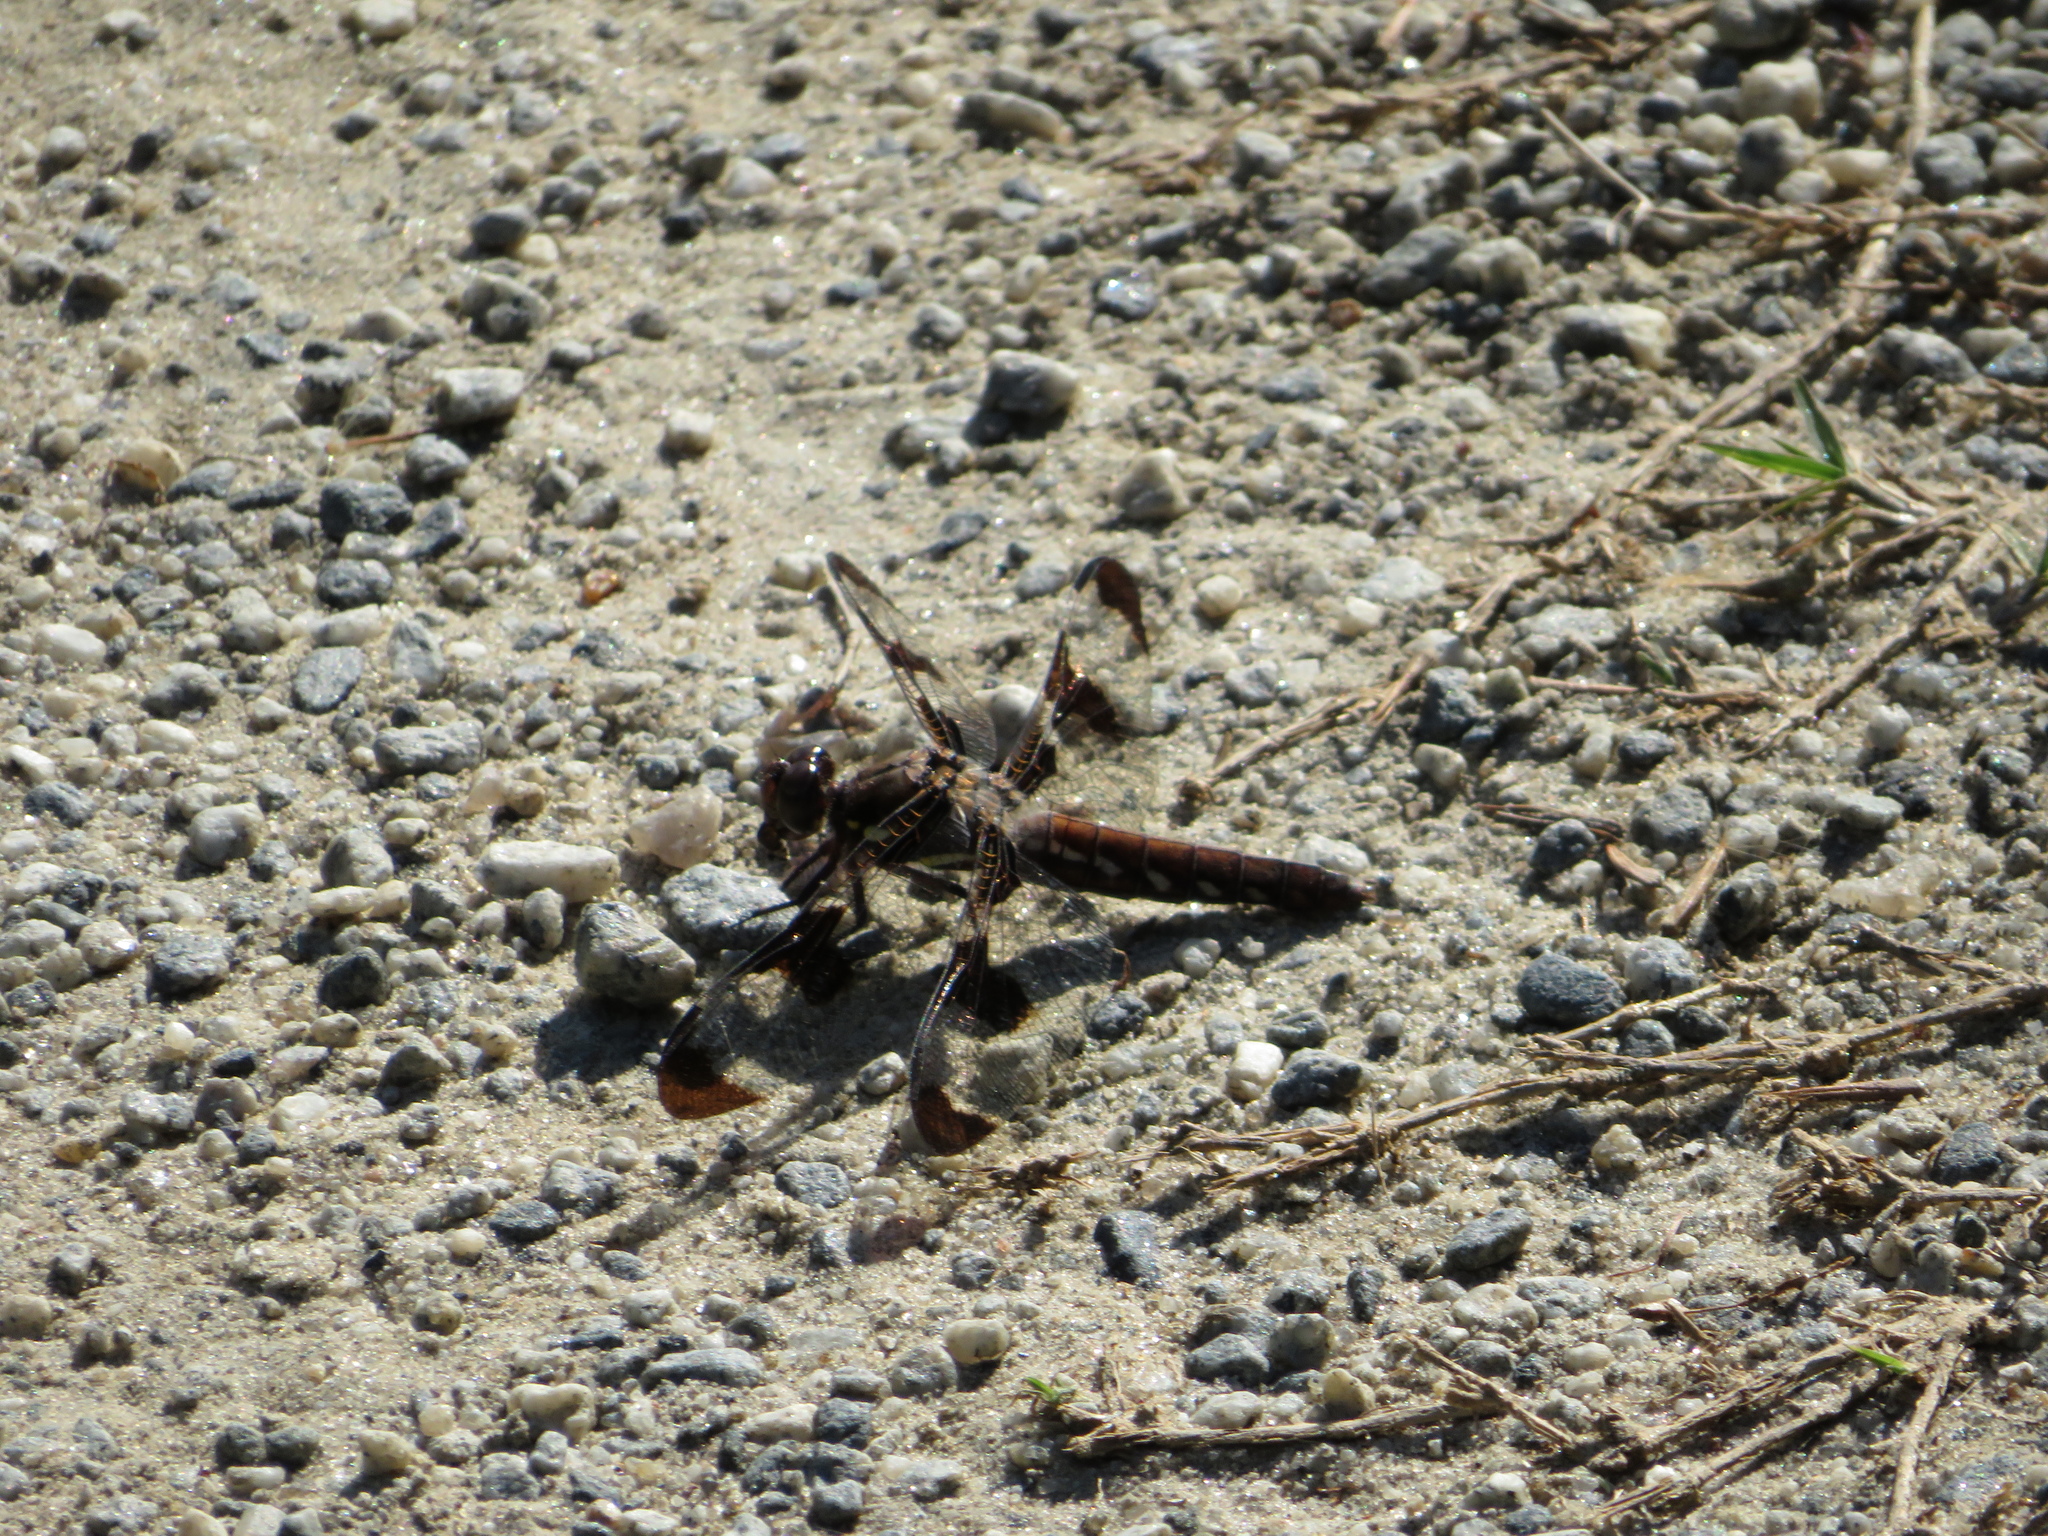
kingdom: Animalia
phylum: Arthropoda
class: Insecta
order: Odonata
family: Libellulidae
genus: Plathemis
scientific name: Plathemis lydia
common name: Common whitetail
